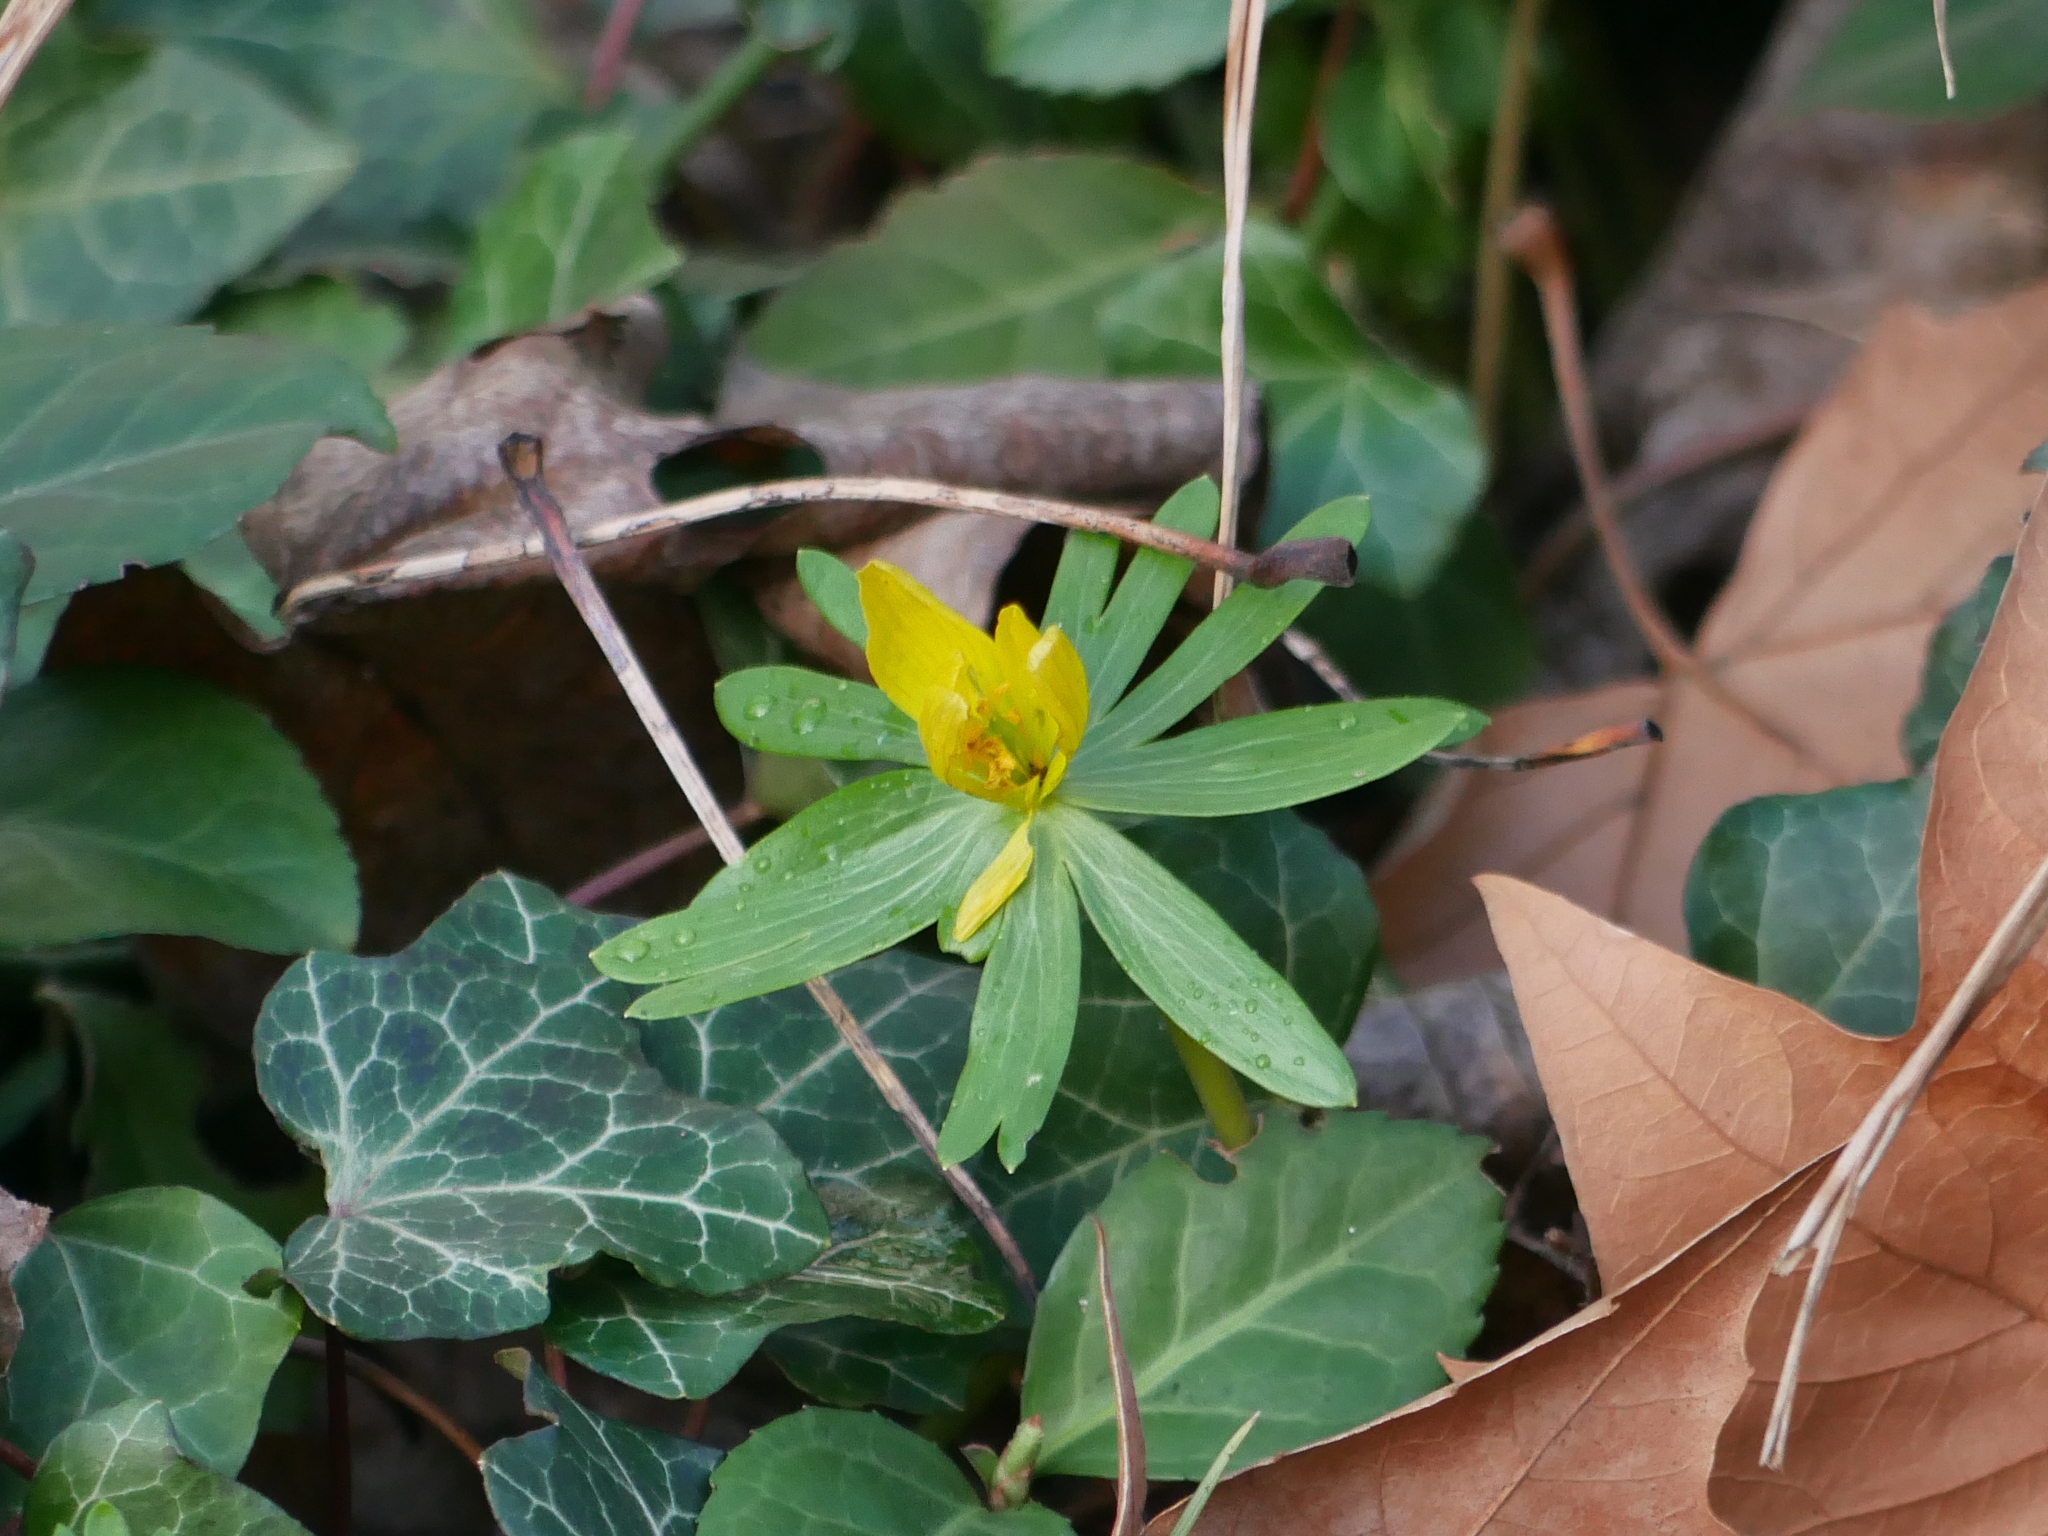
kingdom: Plantae
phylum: Tracheophyta
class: Magnoliopsida
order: Ranunculales
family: Ranunculaceae
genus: Eranthis
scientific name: Eranthis hyemalis
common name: Winter aconite
